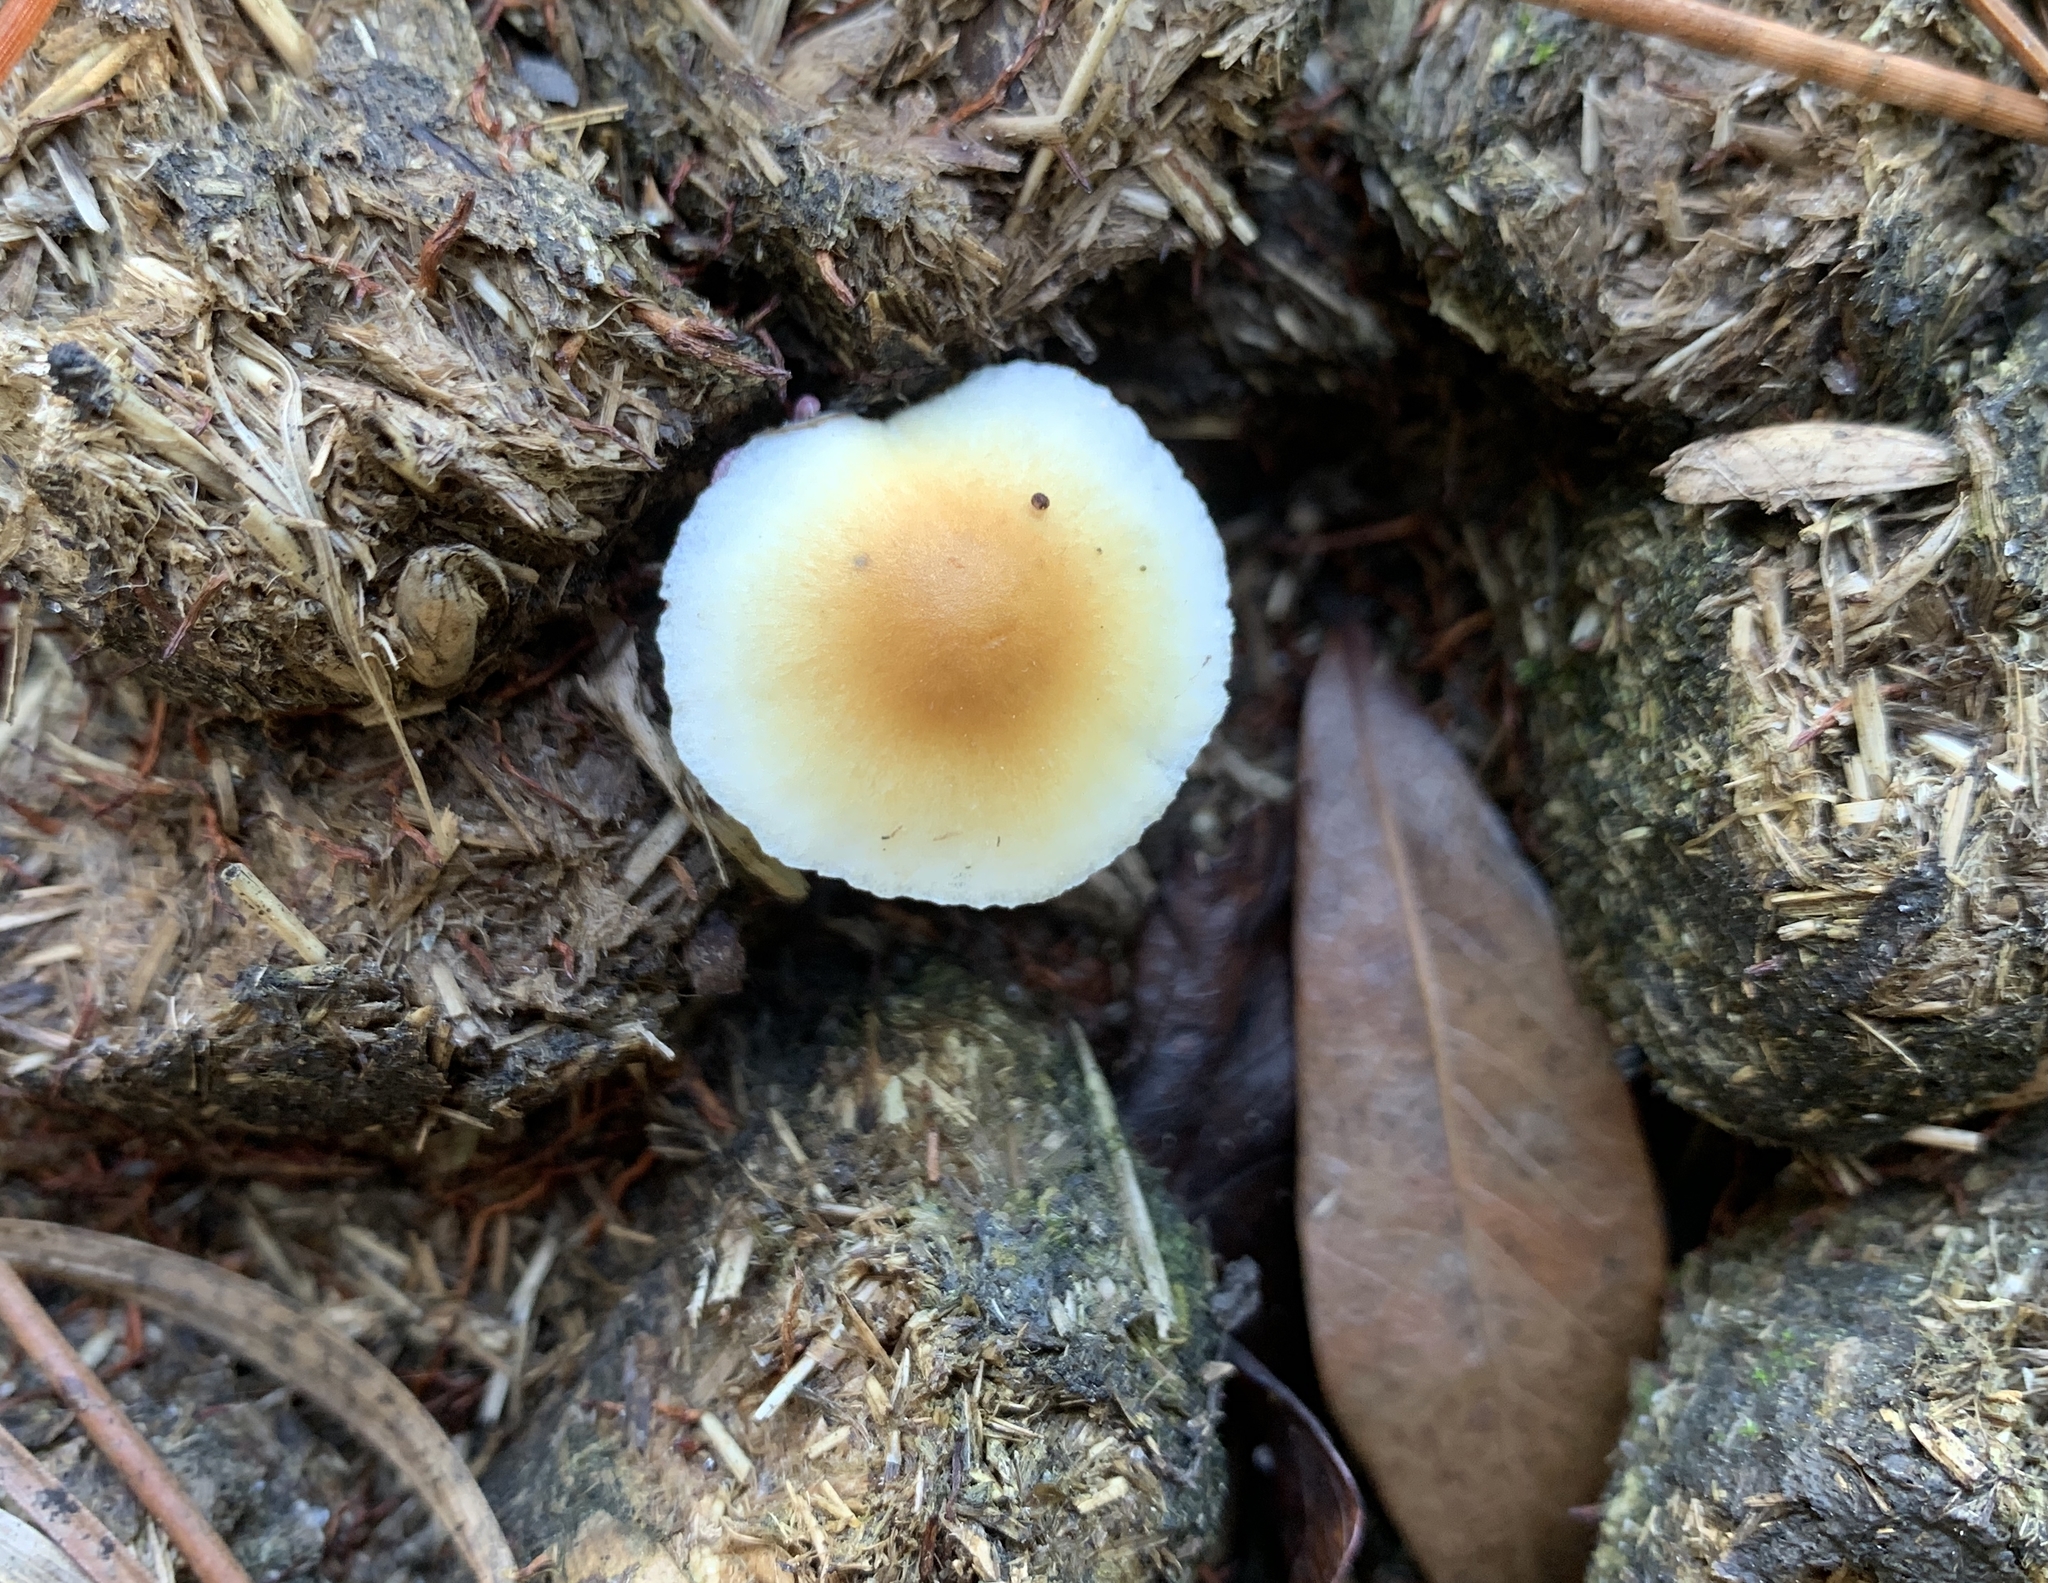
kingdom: Fungi
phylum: Basidiomycota
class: Agaricomycetes
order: Agaricales
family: Hymenogastraceae
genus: Psilocybe
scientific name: Psilocybe cubensis
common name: Golden brownie
